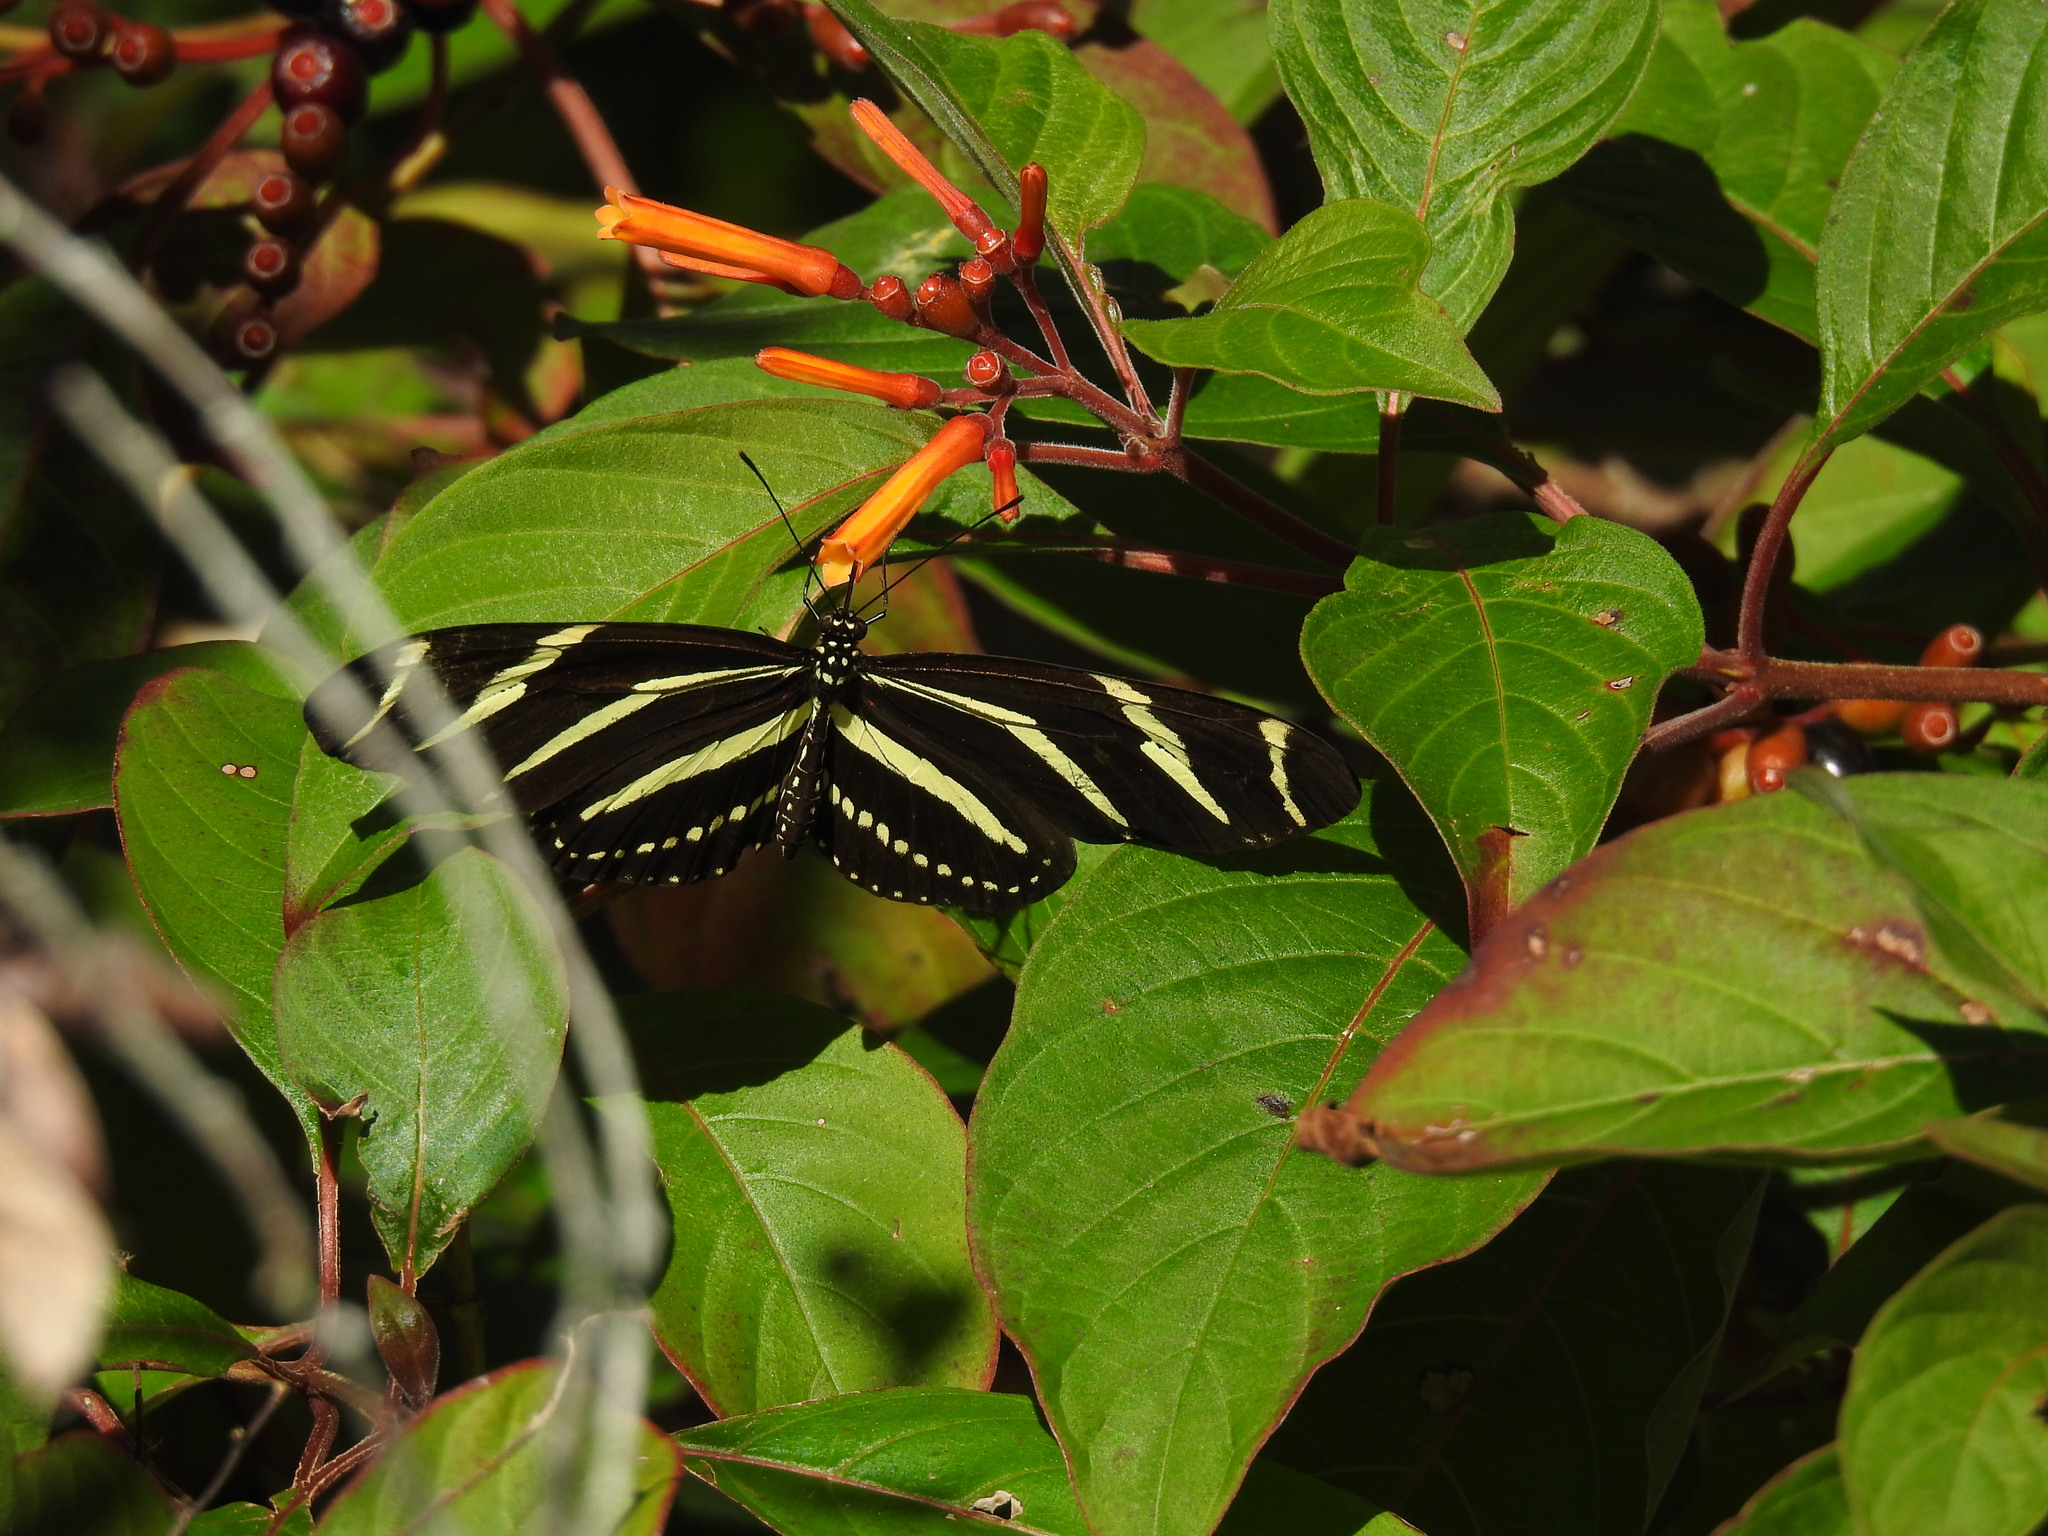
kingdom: Animalia
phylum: Arthropoda
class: Insecta
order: Lepidoptera
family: Nymphalidae
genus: Heliconius
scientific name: Heliconius charithonia
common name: Zebra long wing
